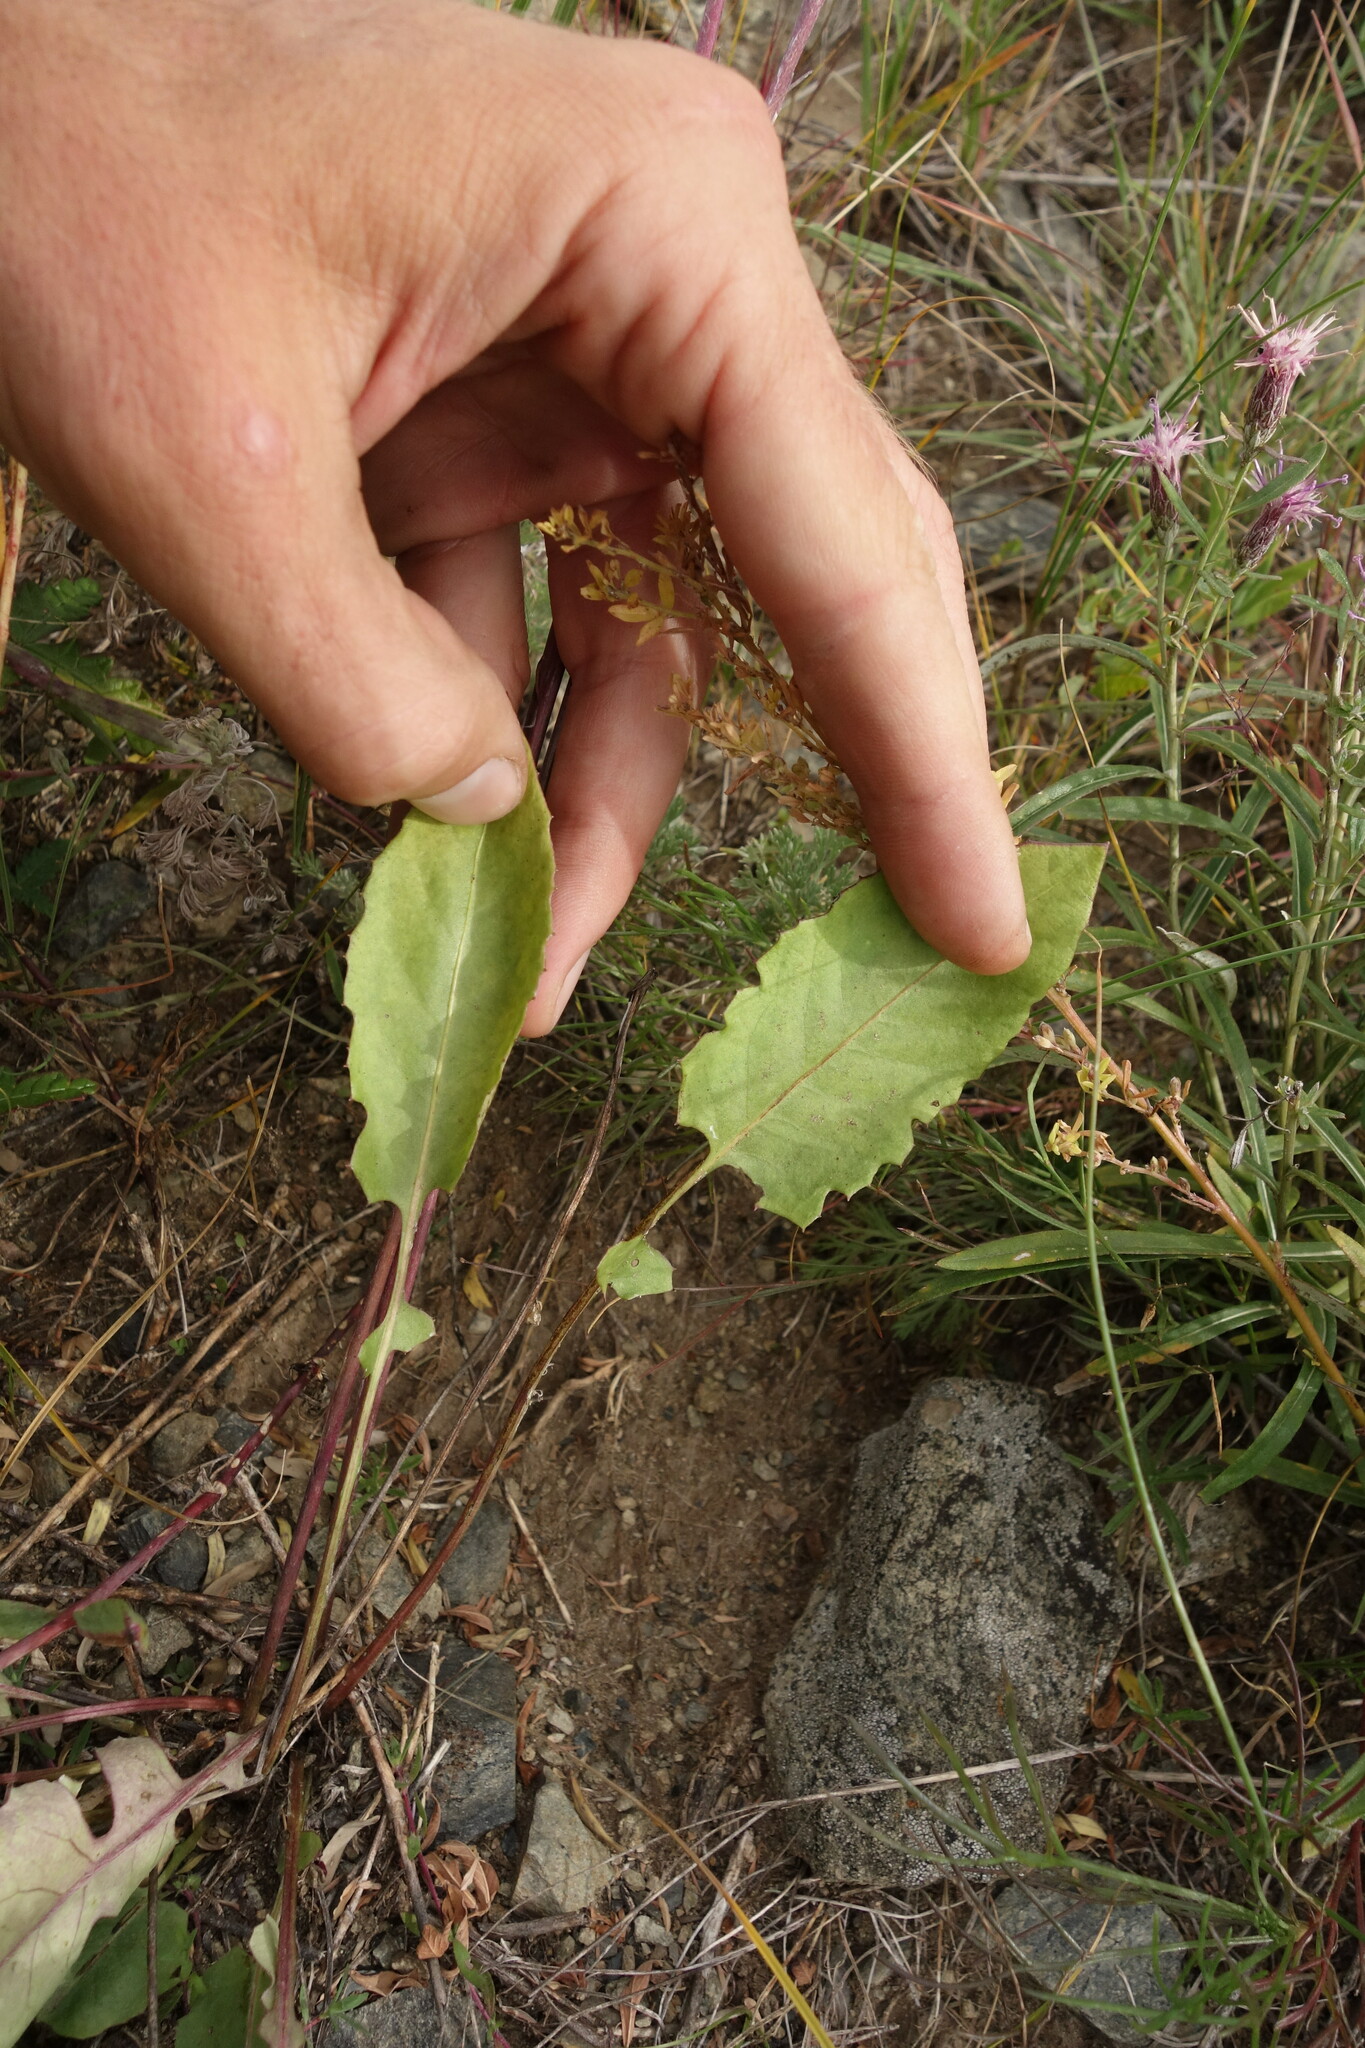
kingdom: Plantae
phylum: Tracheophyta
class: Magnoliopsida
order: Asterales
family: Asteraceae
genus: Leibnitzia
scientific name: Leibnitzia anandria
